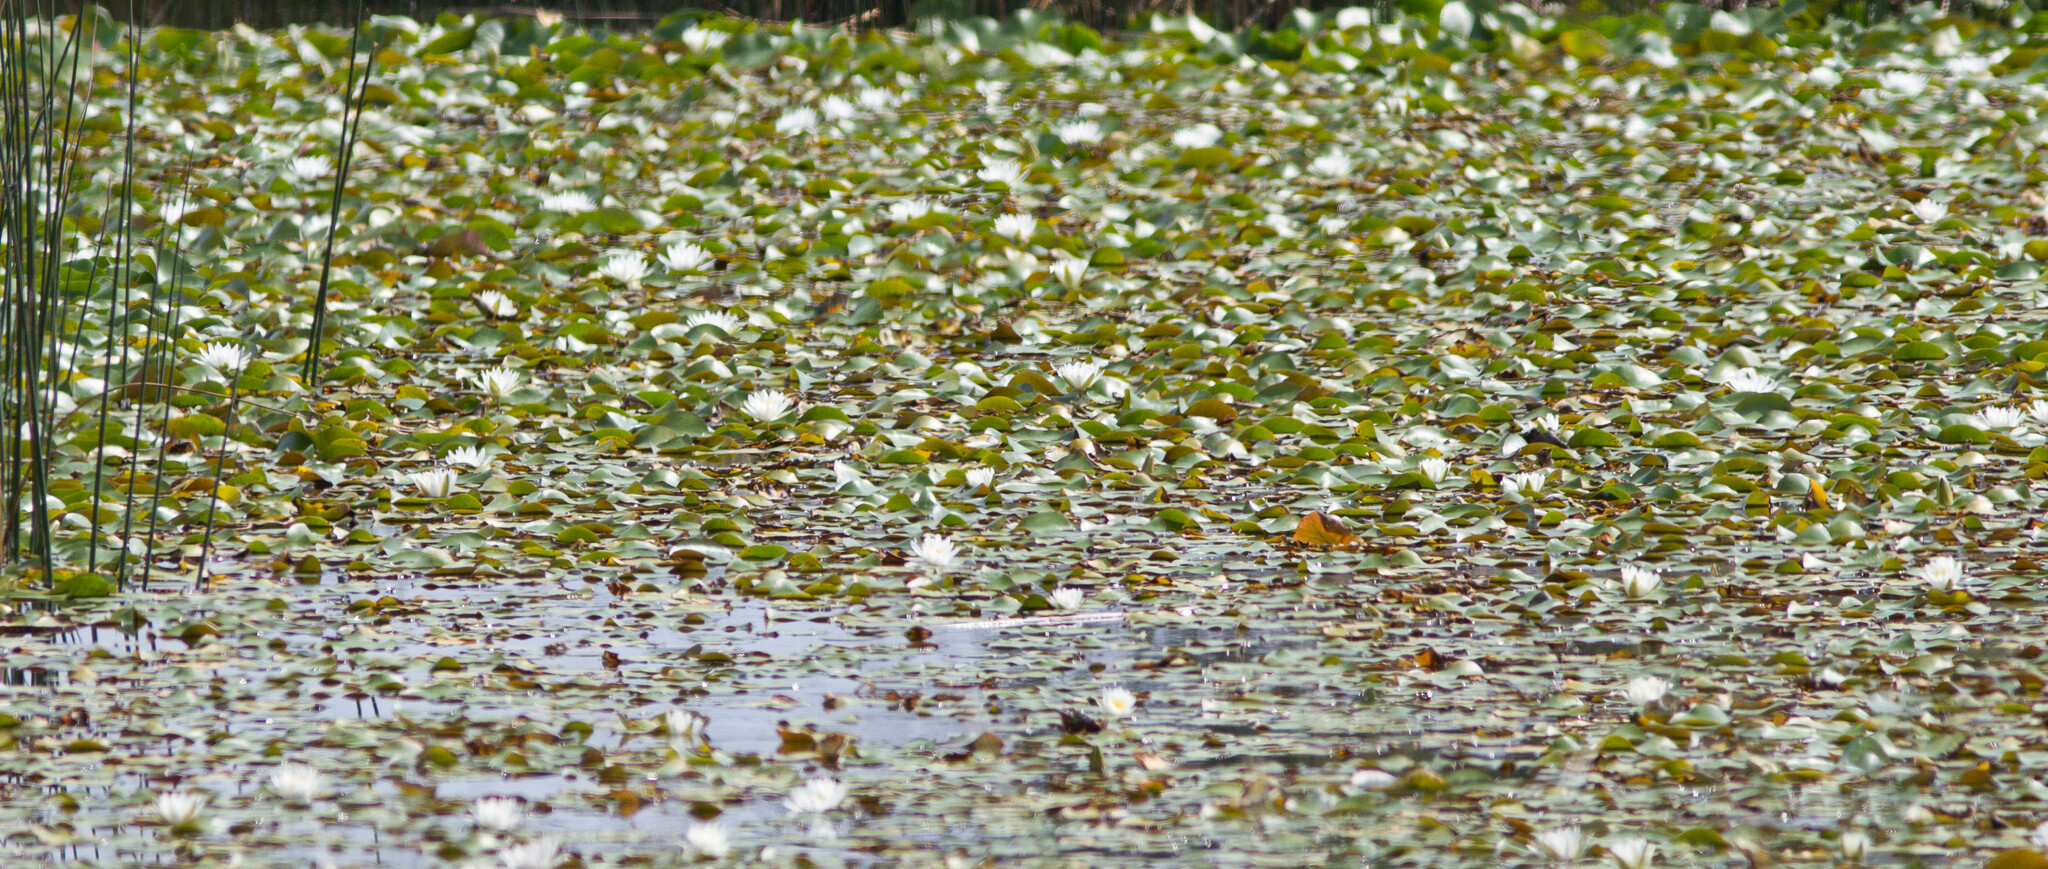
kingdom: Plantae
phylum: Tracheophyta
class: Magnoliopsida
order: Nymphaeales
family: Nymphaeaceae
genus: Nymphaea
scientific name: Nymphaea odorata
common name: Fragrant water-lily
